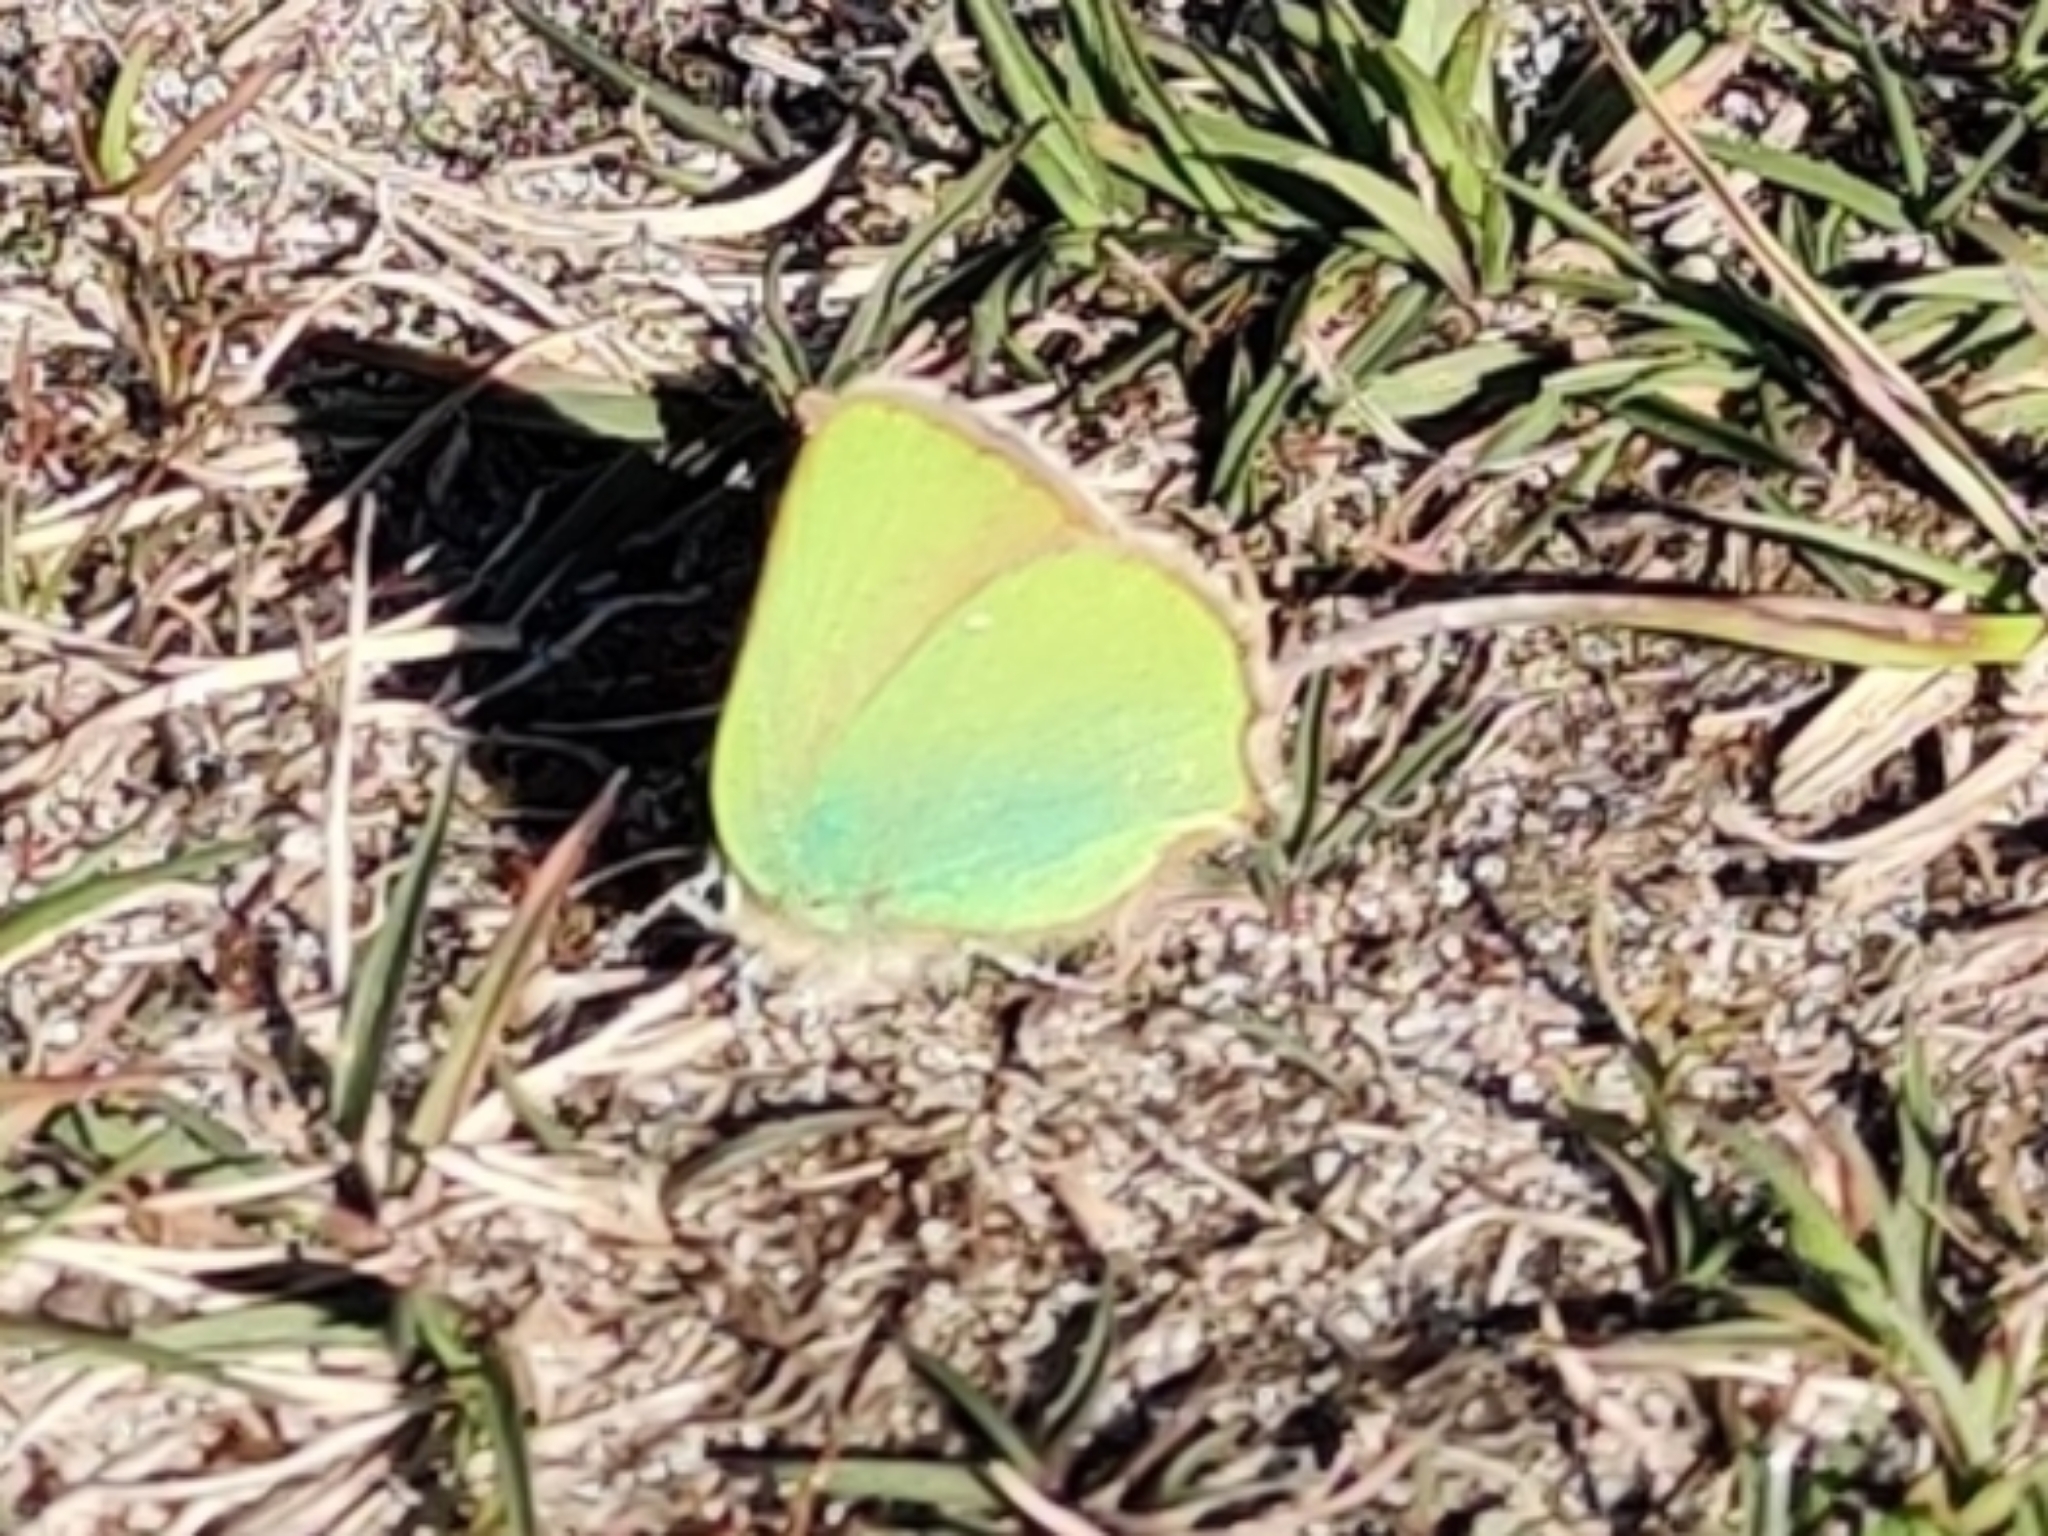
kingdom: Animalia
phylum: Arthropoda
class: Insecta
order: Lepidoptera
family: Lycaenidae
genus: Callophrys
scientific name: Callophrys rubi
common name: Green hairstreak
